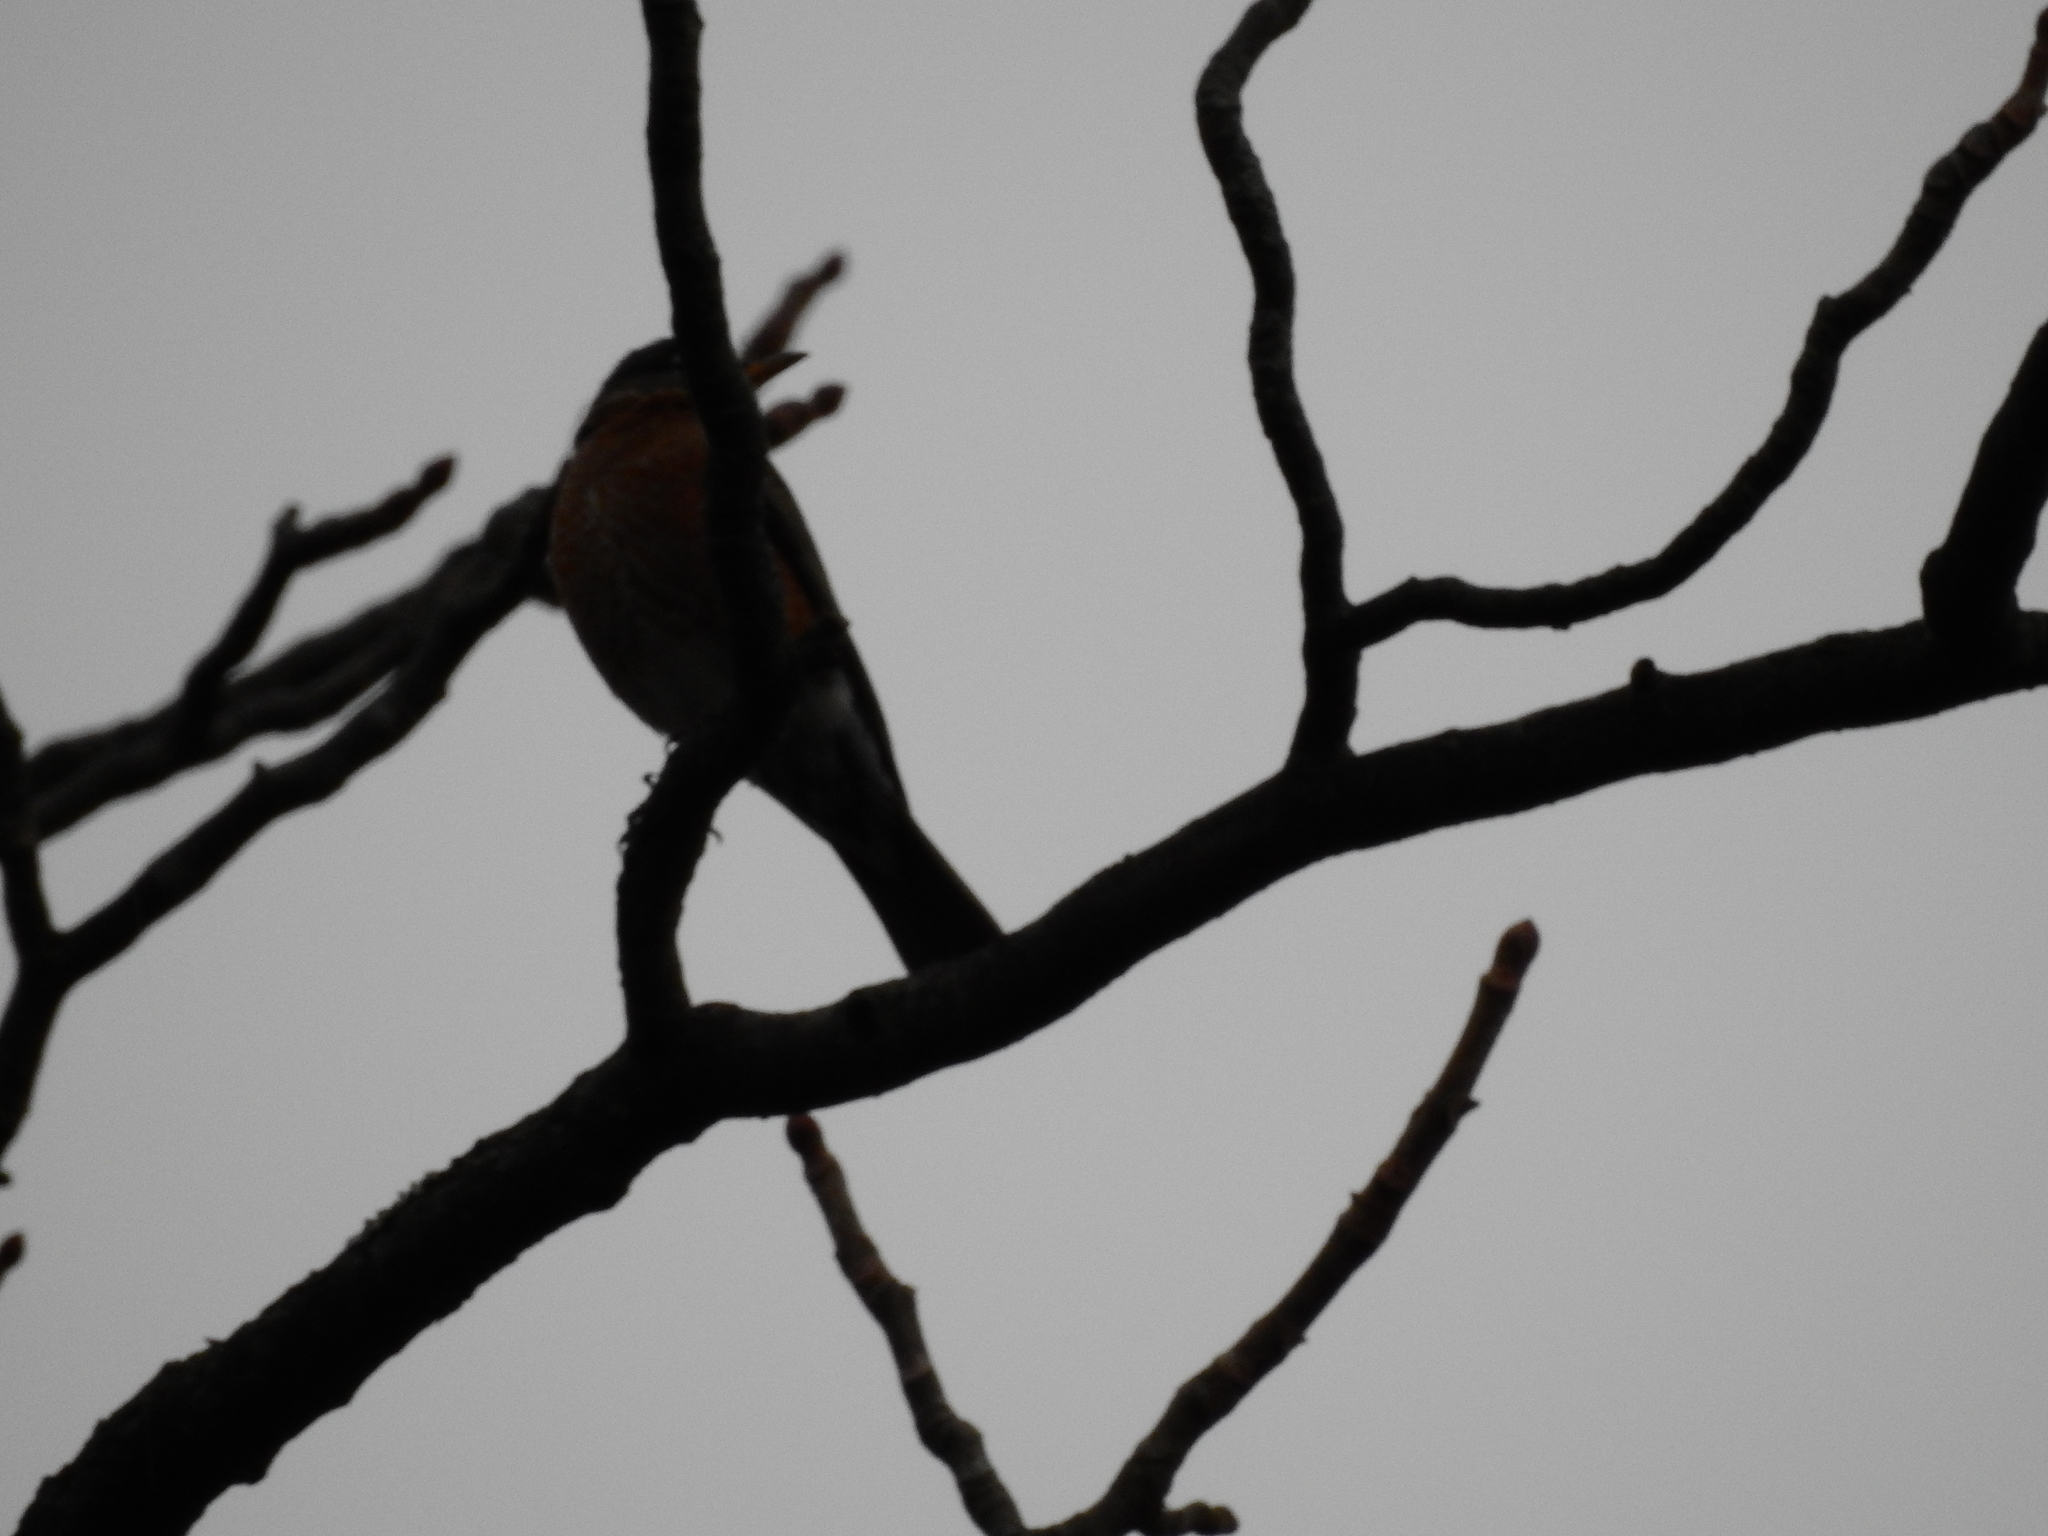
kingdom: Animalia
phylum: Chordata
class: Aves
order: Passeriformes
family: Turdidae
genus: Turdus
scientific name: Turdus migratorius
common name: American robin
